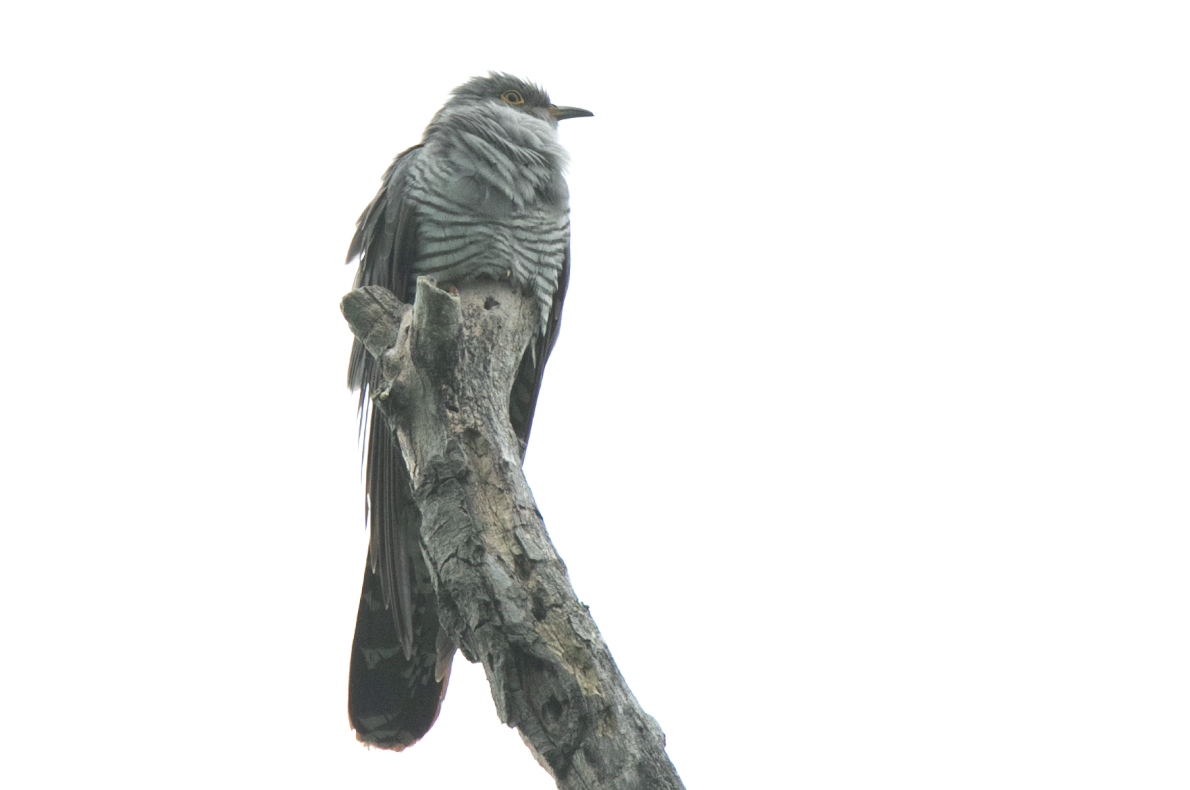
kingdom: Animalia
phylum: Chordata
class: Aves
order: Cuculiformes
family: Cuculidae
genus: Cuculus
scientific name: Cuculus canorus
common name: Common cuckoo
